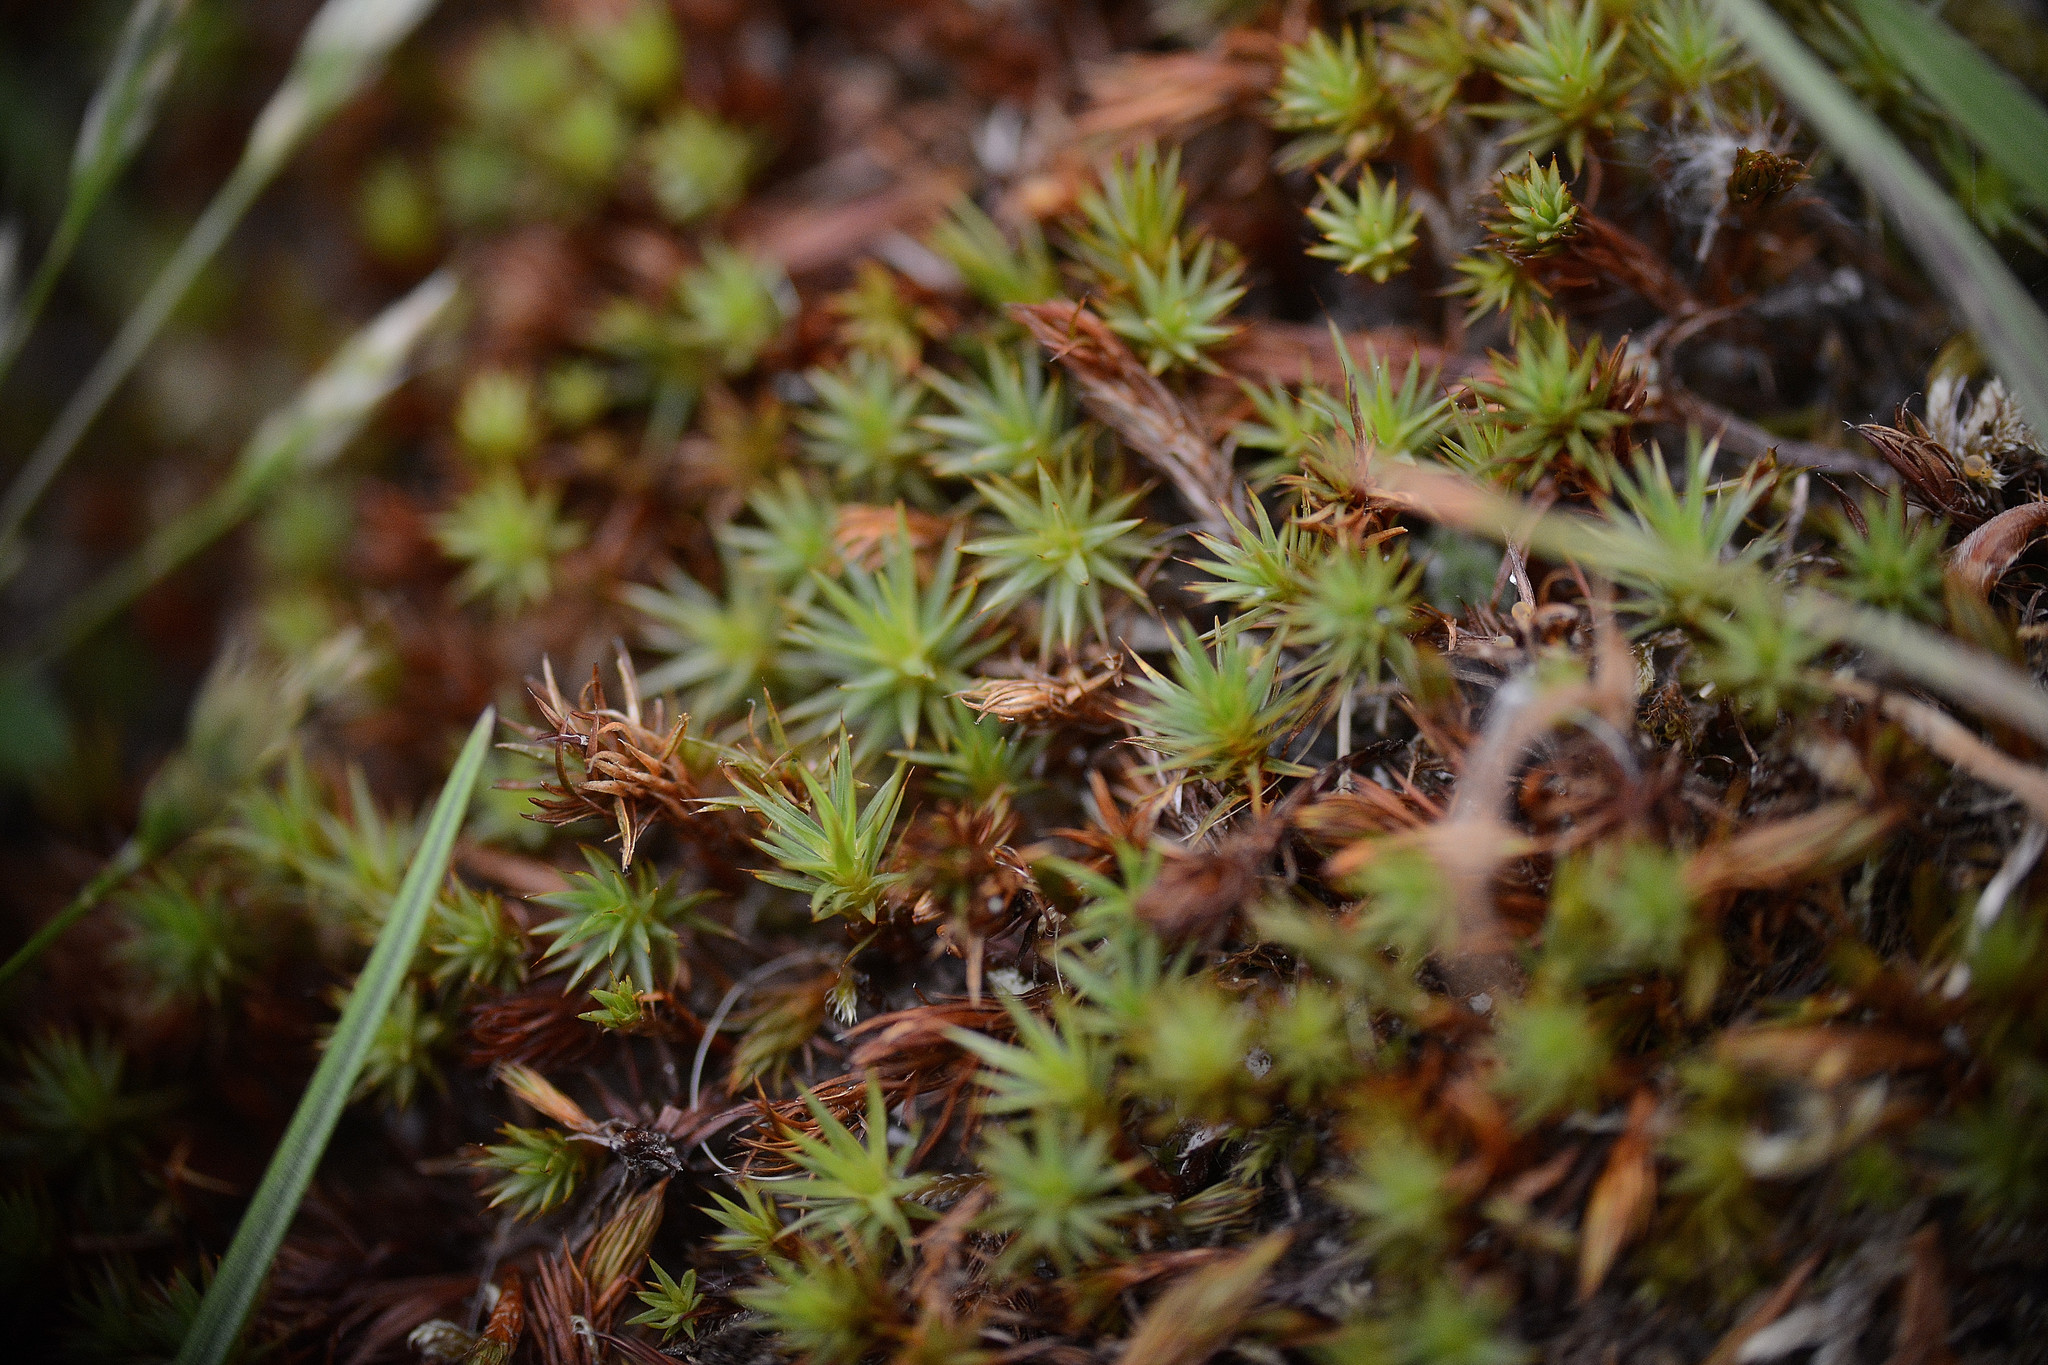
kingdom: Plantae
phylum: Bryophyta
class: Polytrichopsida
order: Polytrichales
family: Polytrichaceae
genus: Polytrichum
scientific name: Polytrichum juniperinum
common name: Juniper haircap moss
